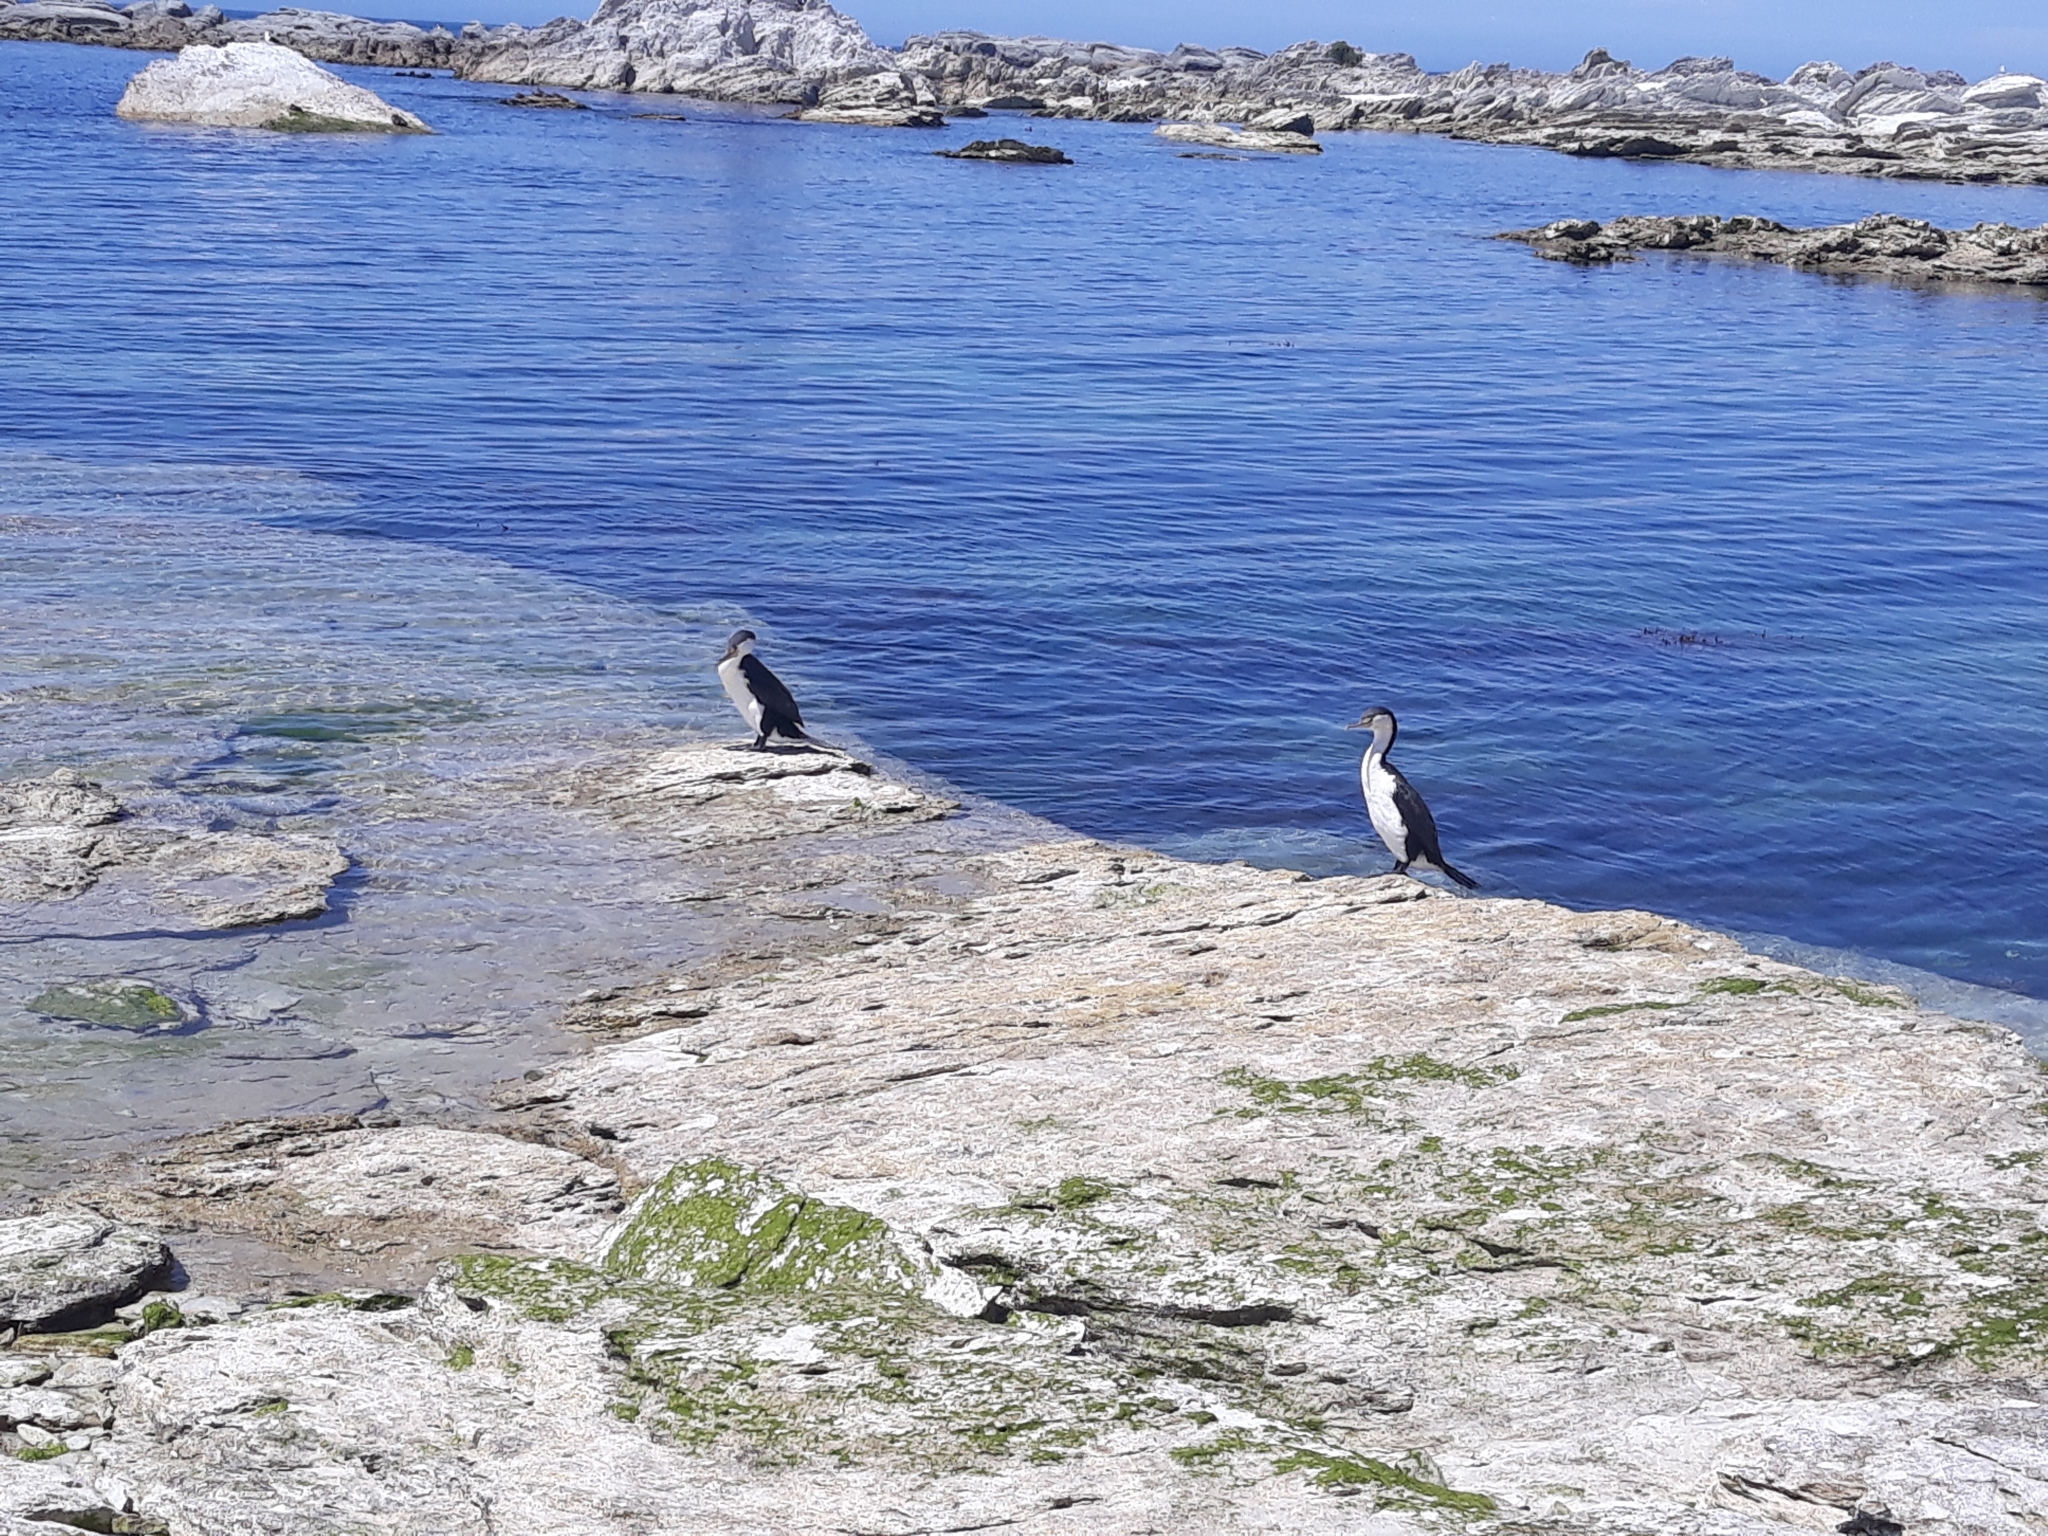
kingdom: Animalia
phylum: Chordata
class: Aves
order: Suliformes
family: Phalacrocoracidae
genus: Phalacrocorax
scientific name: Phalacrocorax varius
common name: Pied cormorant
